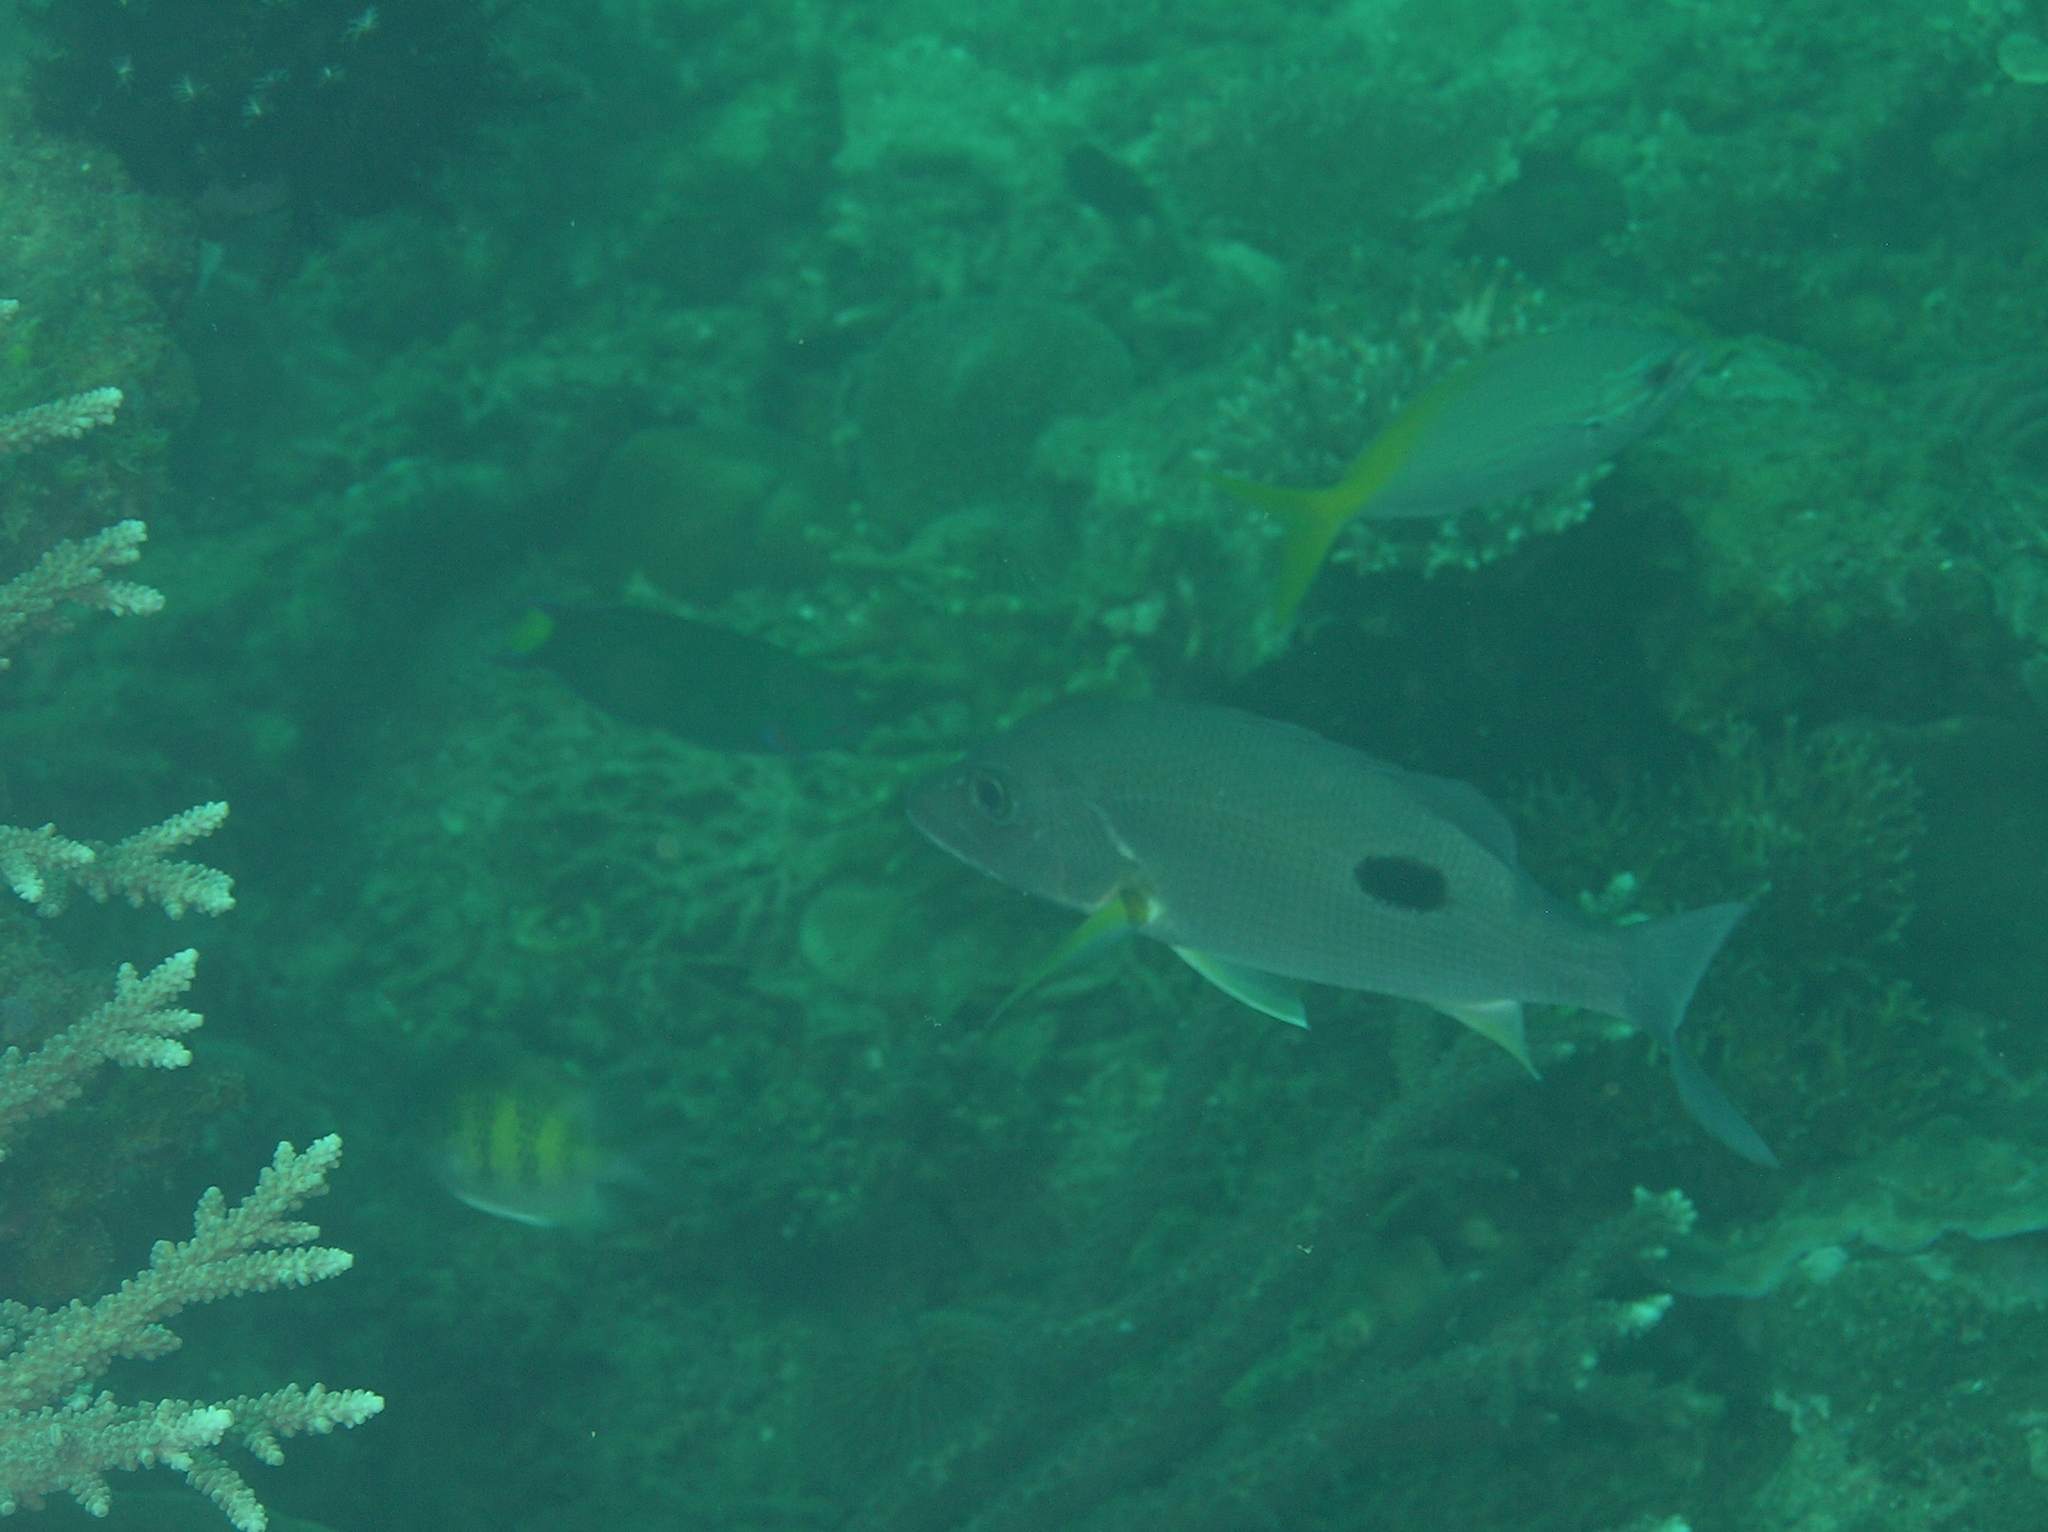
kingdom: Animalia
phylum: Chordata
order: Perciformes
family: Labridae
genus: Thalassoma
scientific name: Thalassoma lunare
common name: Blue wrasse
